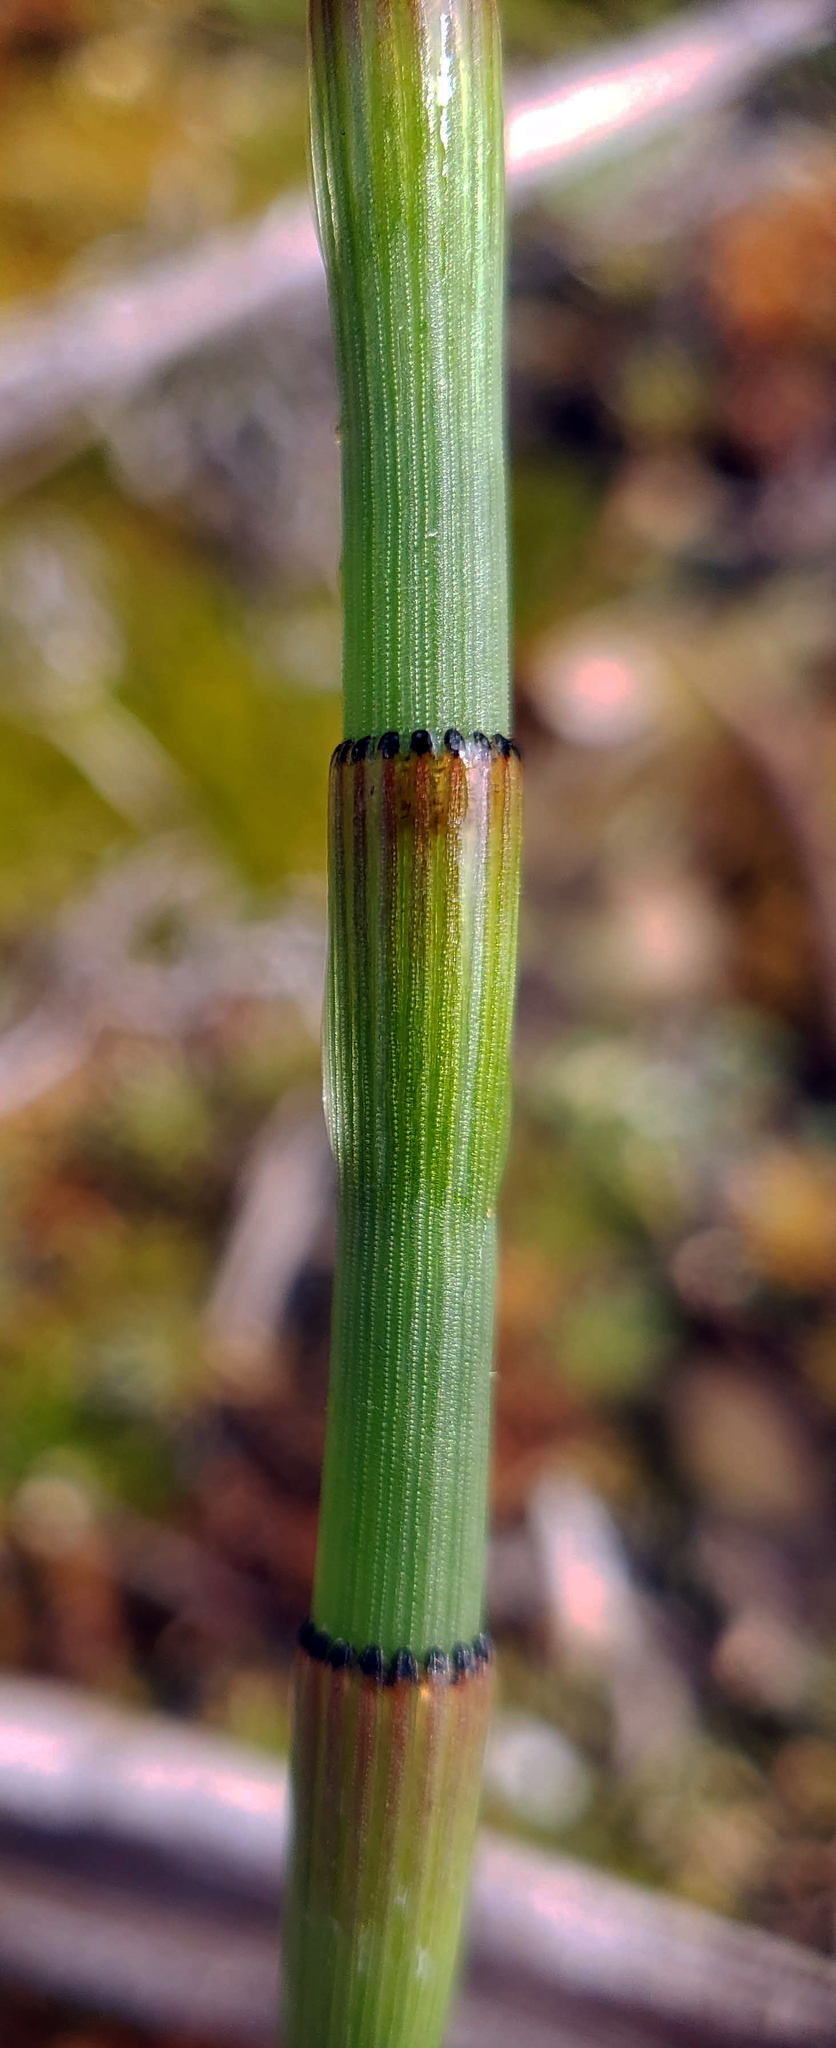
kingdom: Plantae
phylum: Tracheophyta
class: Polypodiopsida
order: Equisetales
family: Equisetaceae
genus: Equisetum
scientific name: Equisetum laevigatum
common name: Smooth scouring-rush
